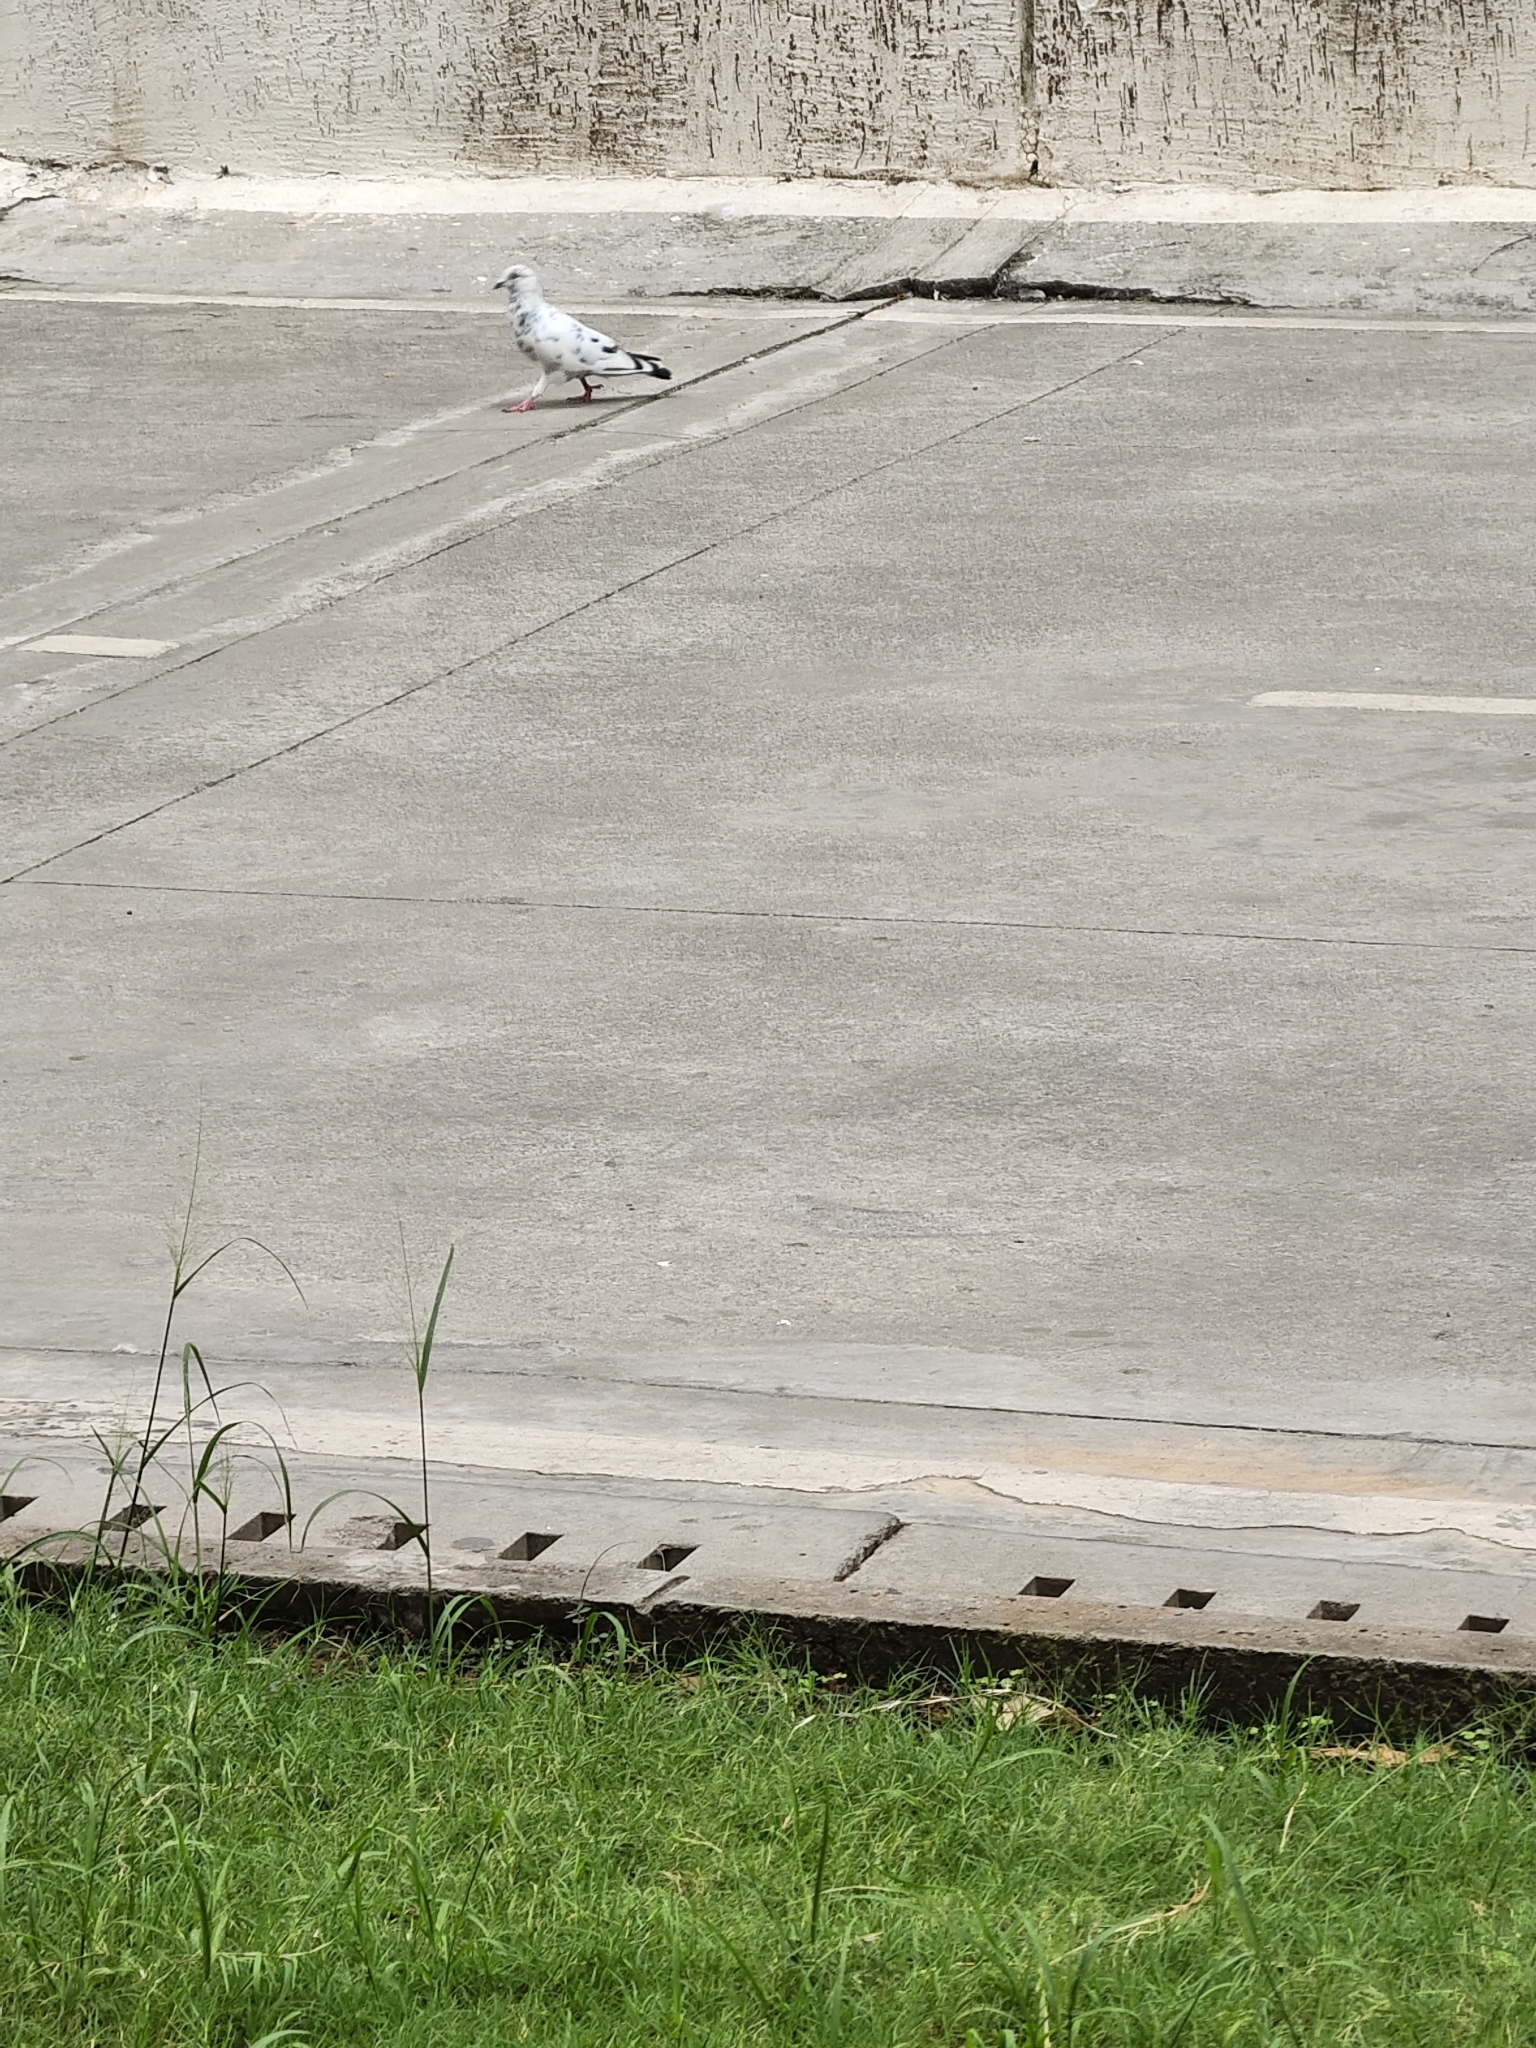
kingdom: Animalia
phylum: Chordata
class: Aves
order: Columbiformes
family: Columbidae
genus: Columba
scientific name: Columba livia
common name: Rock pigeon
